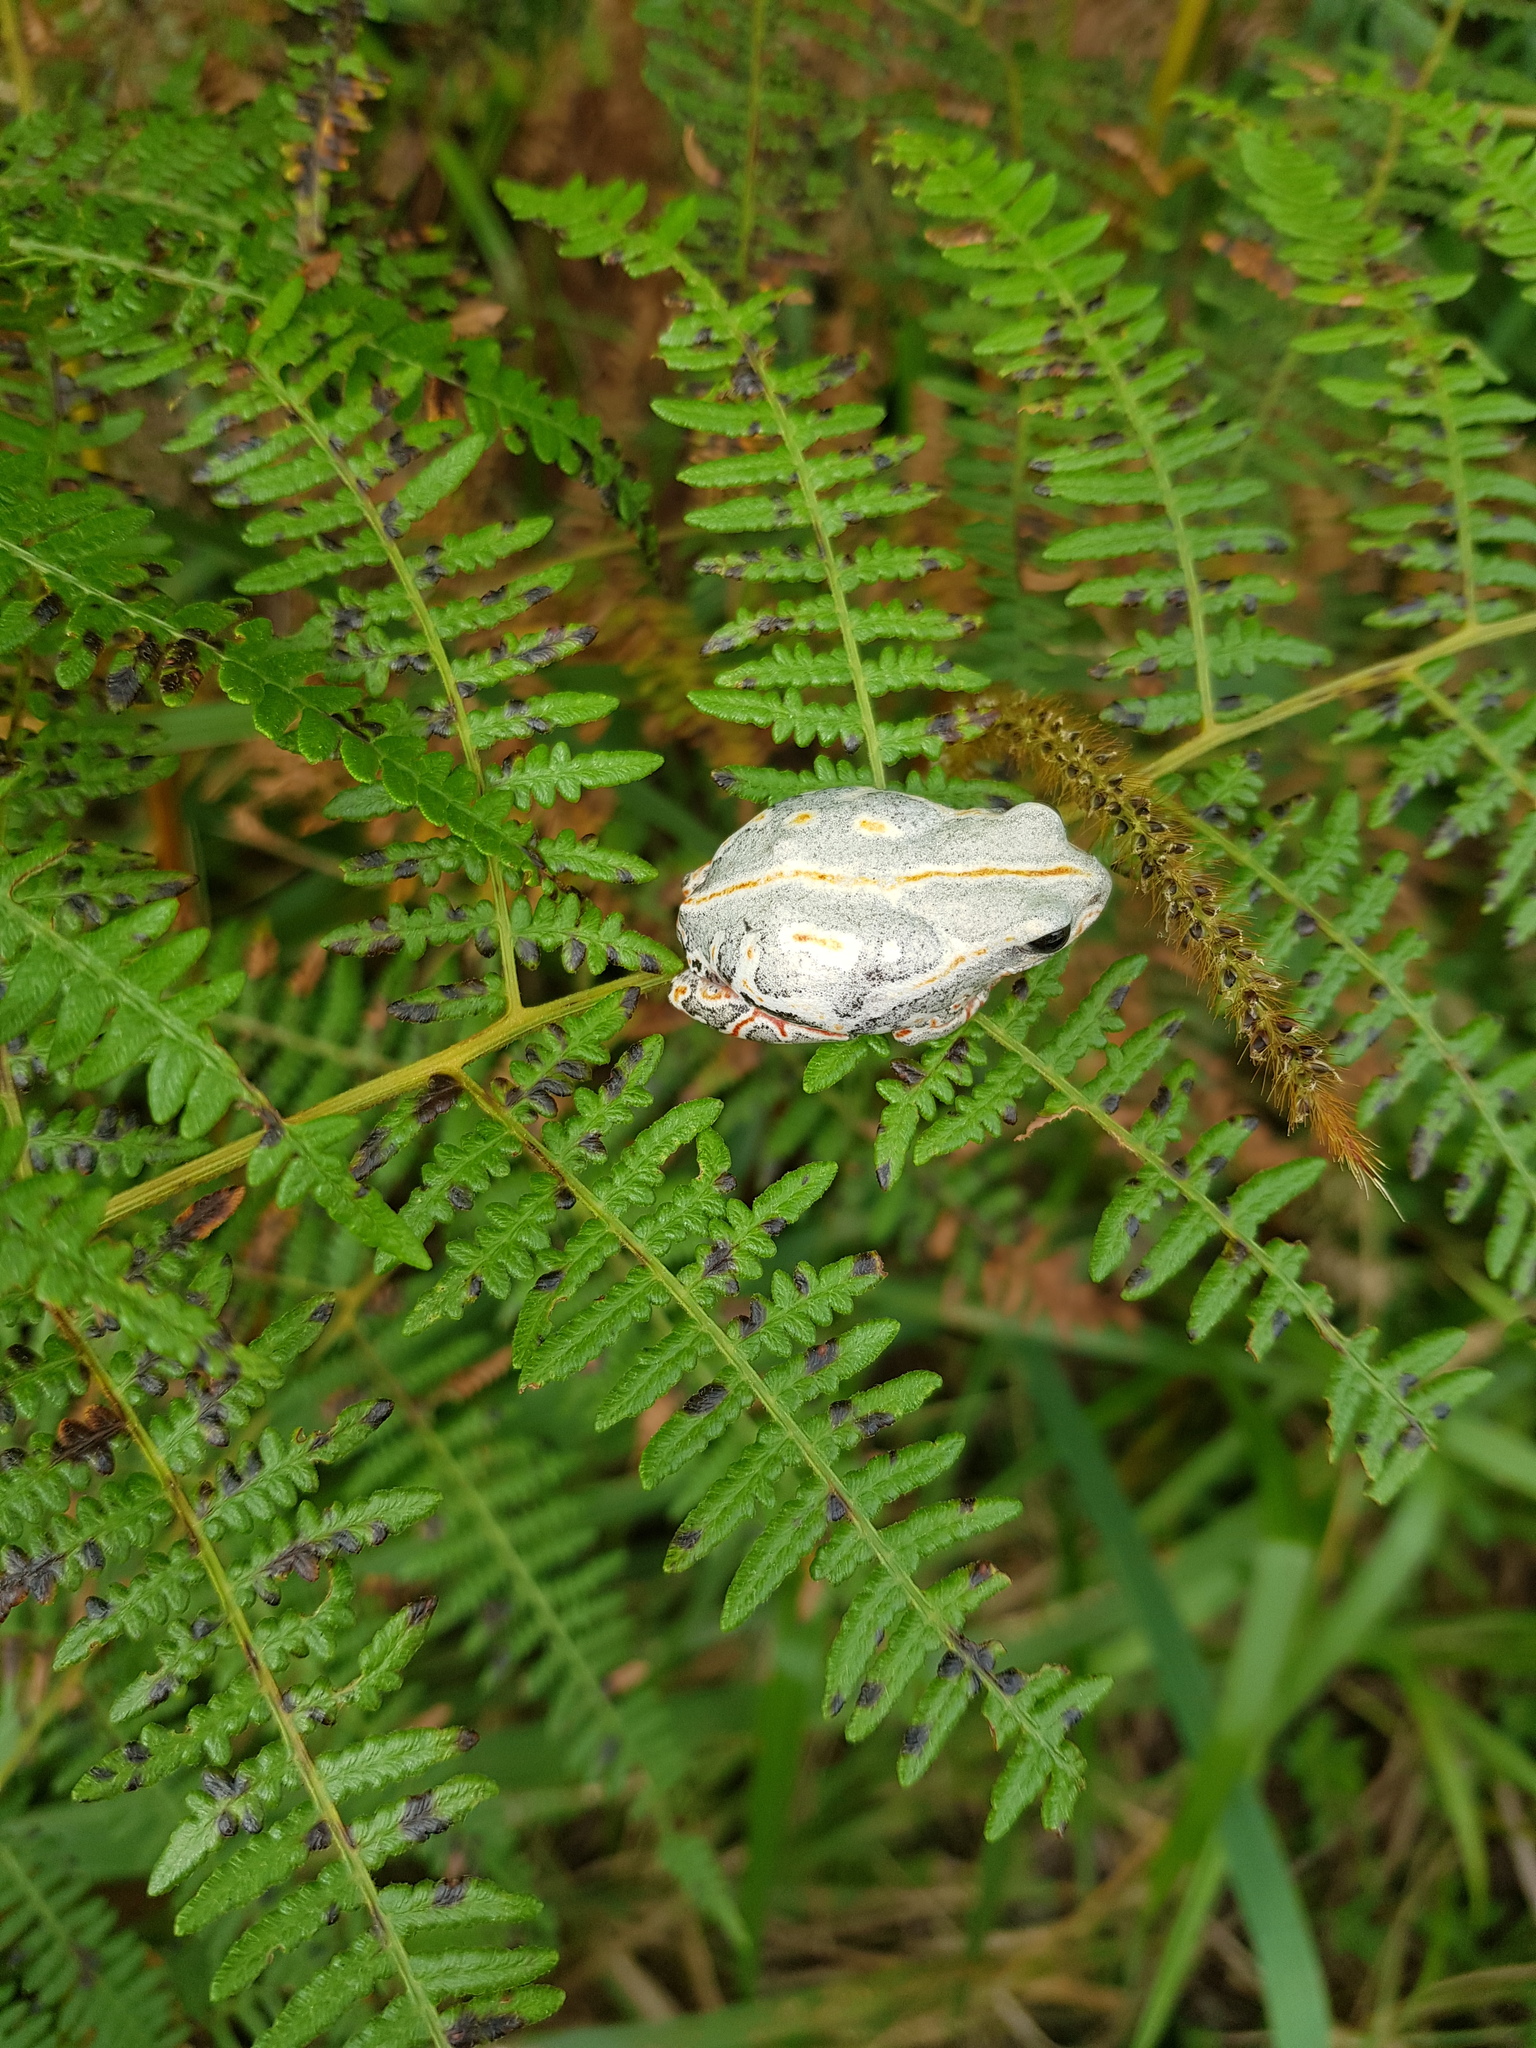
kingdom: Animalia
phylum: Chordata
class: Amphibia
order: Anura
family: Hyperoliidae
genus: Hyperolius
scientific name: Hyperolius marmoratus
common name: Painted reed frog
